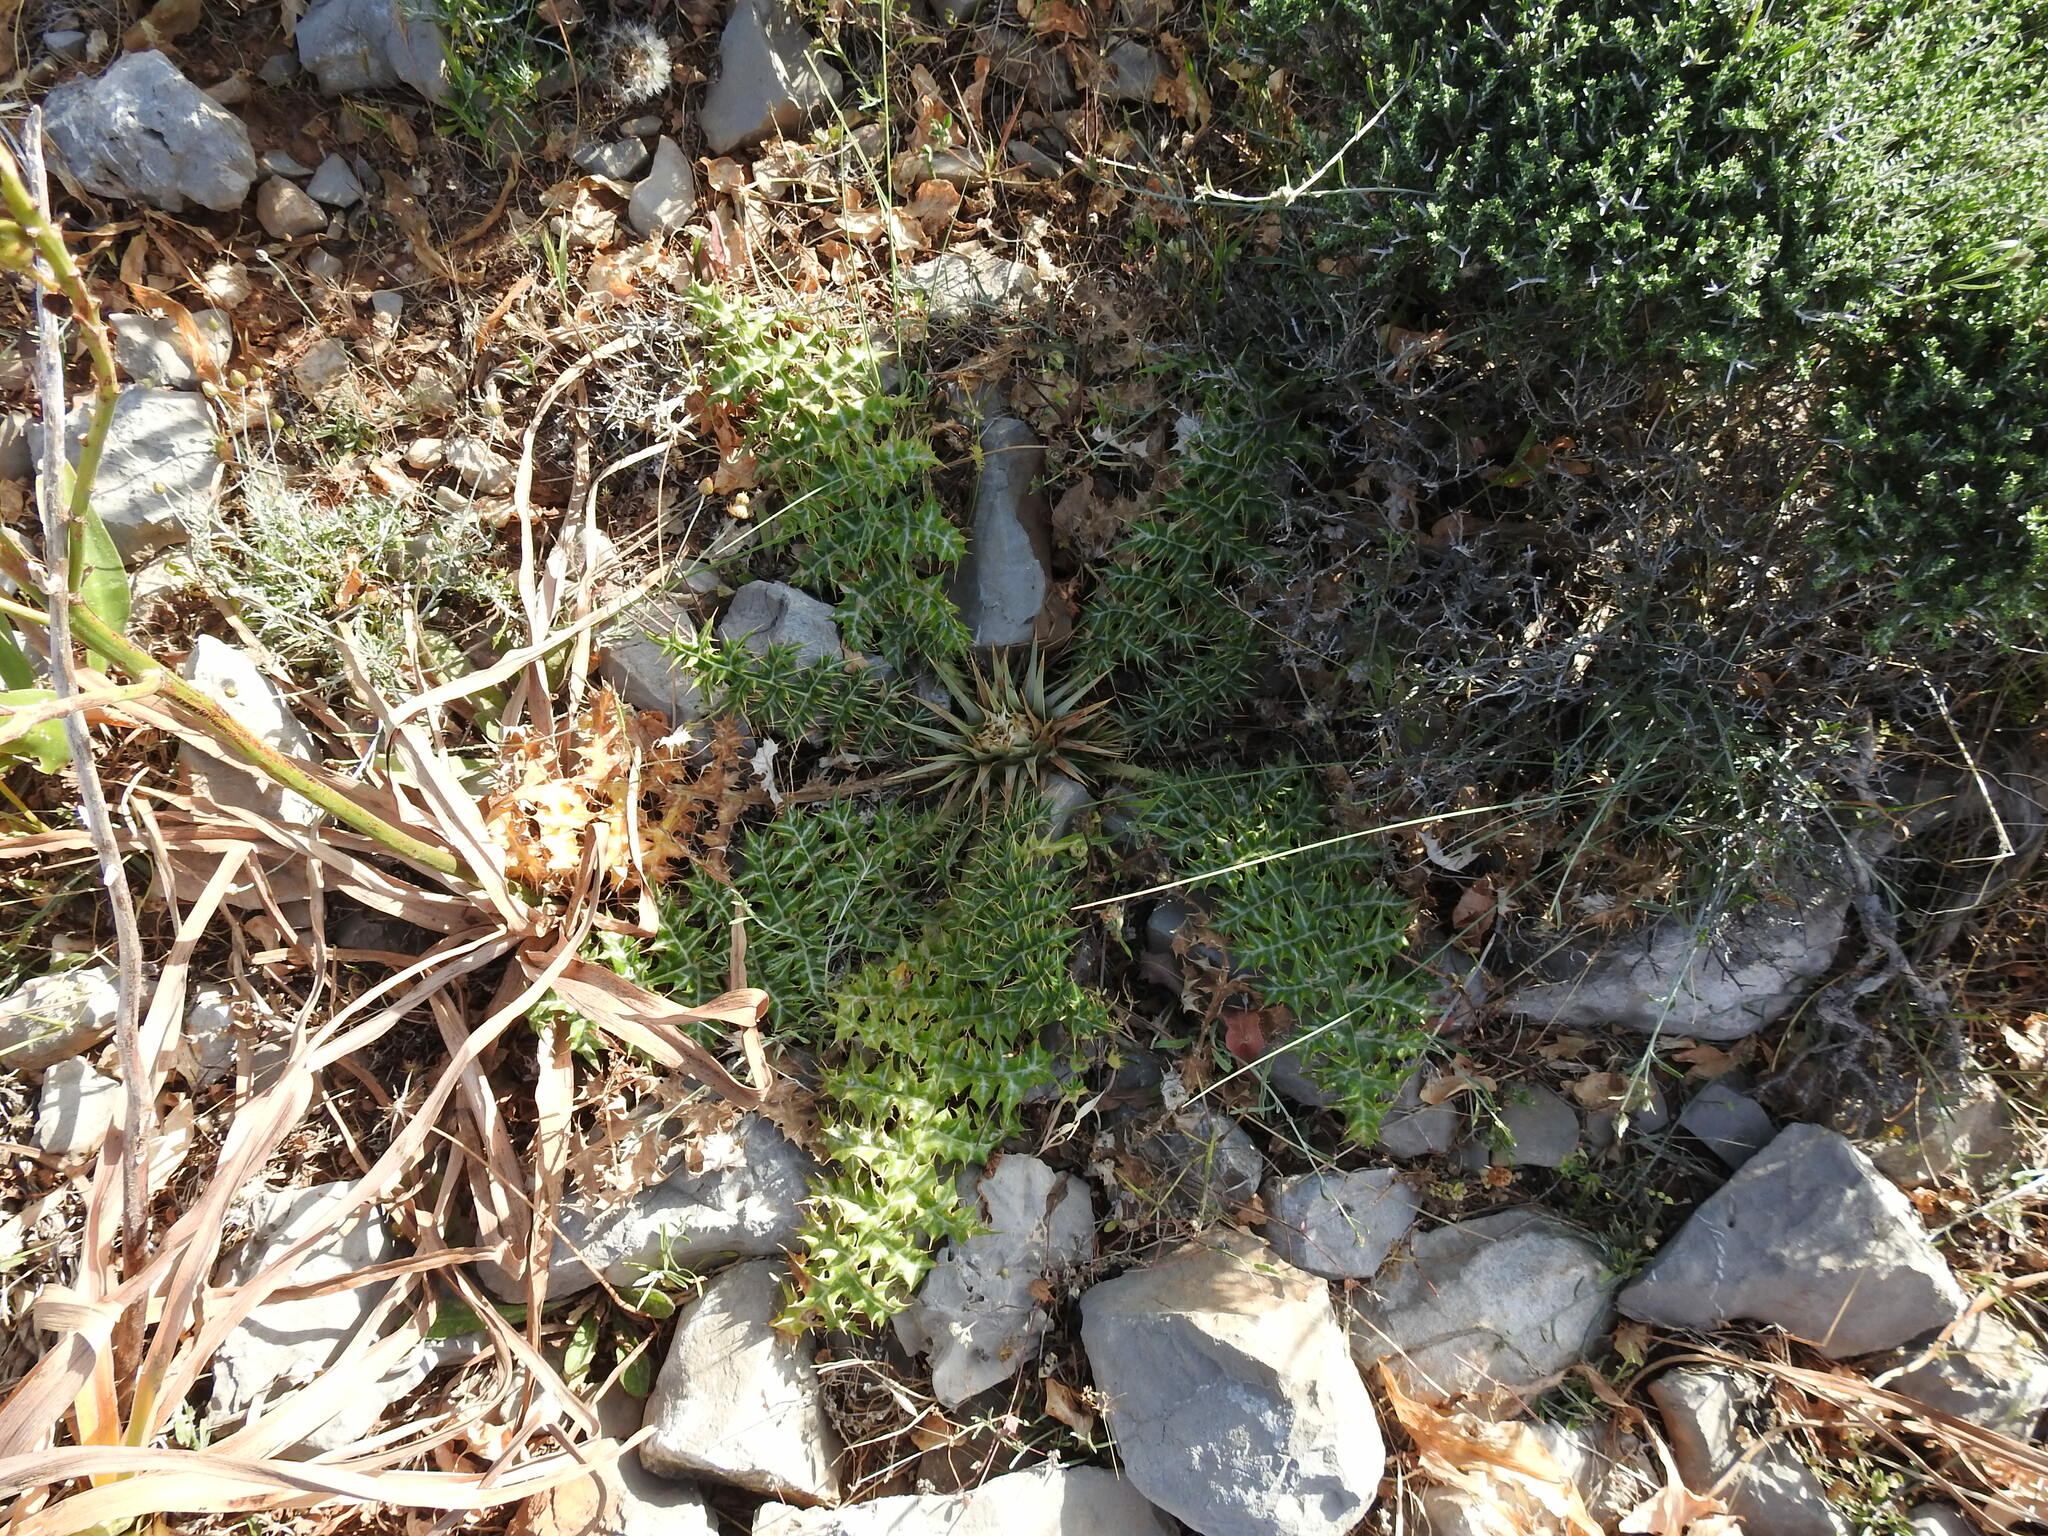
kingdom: Plantae
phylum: Tracheophyta
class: Magnoliopsida
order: Asterales
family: Asteraceae
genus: Cynara
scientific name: Cynara cornigera
